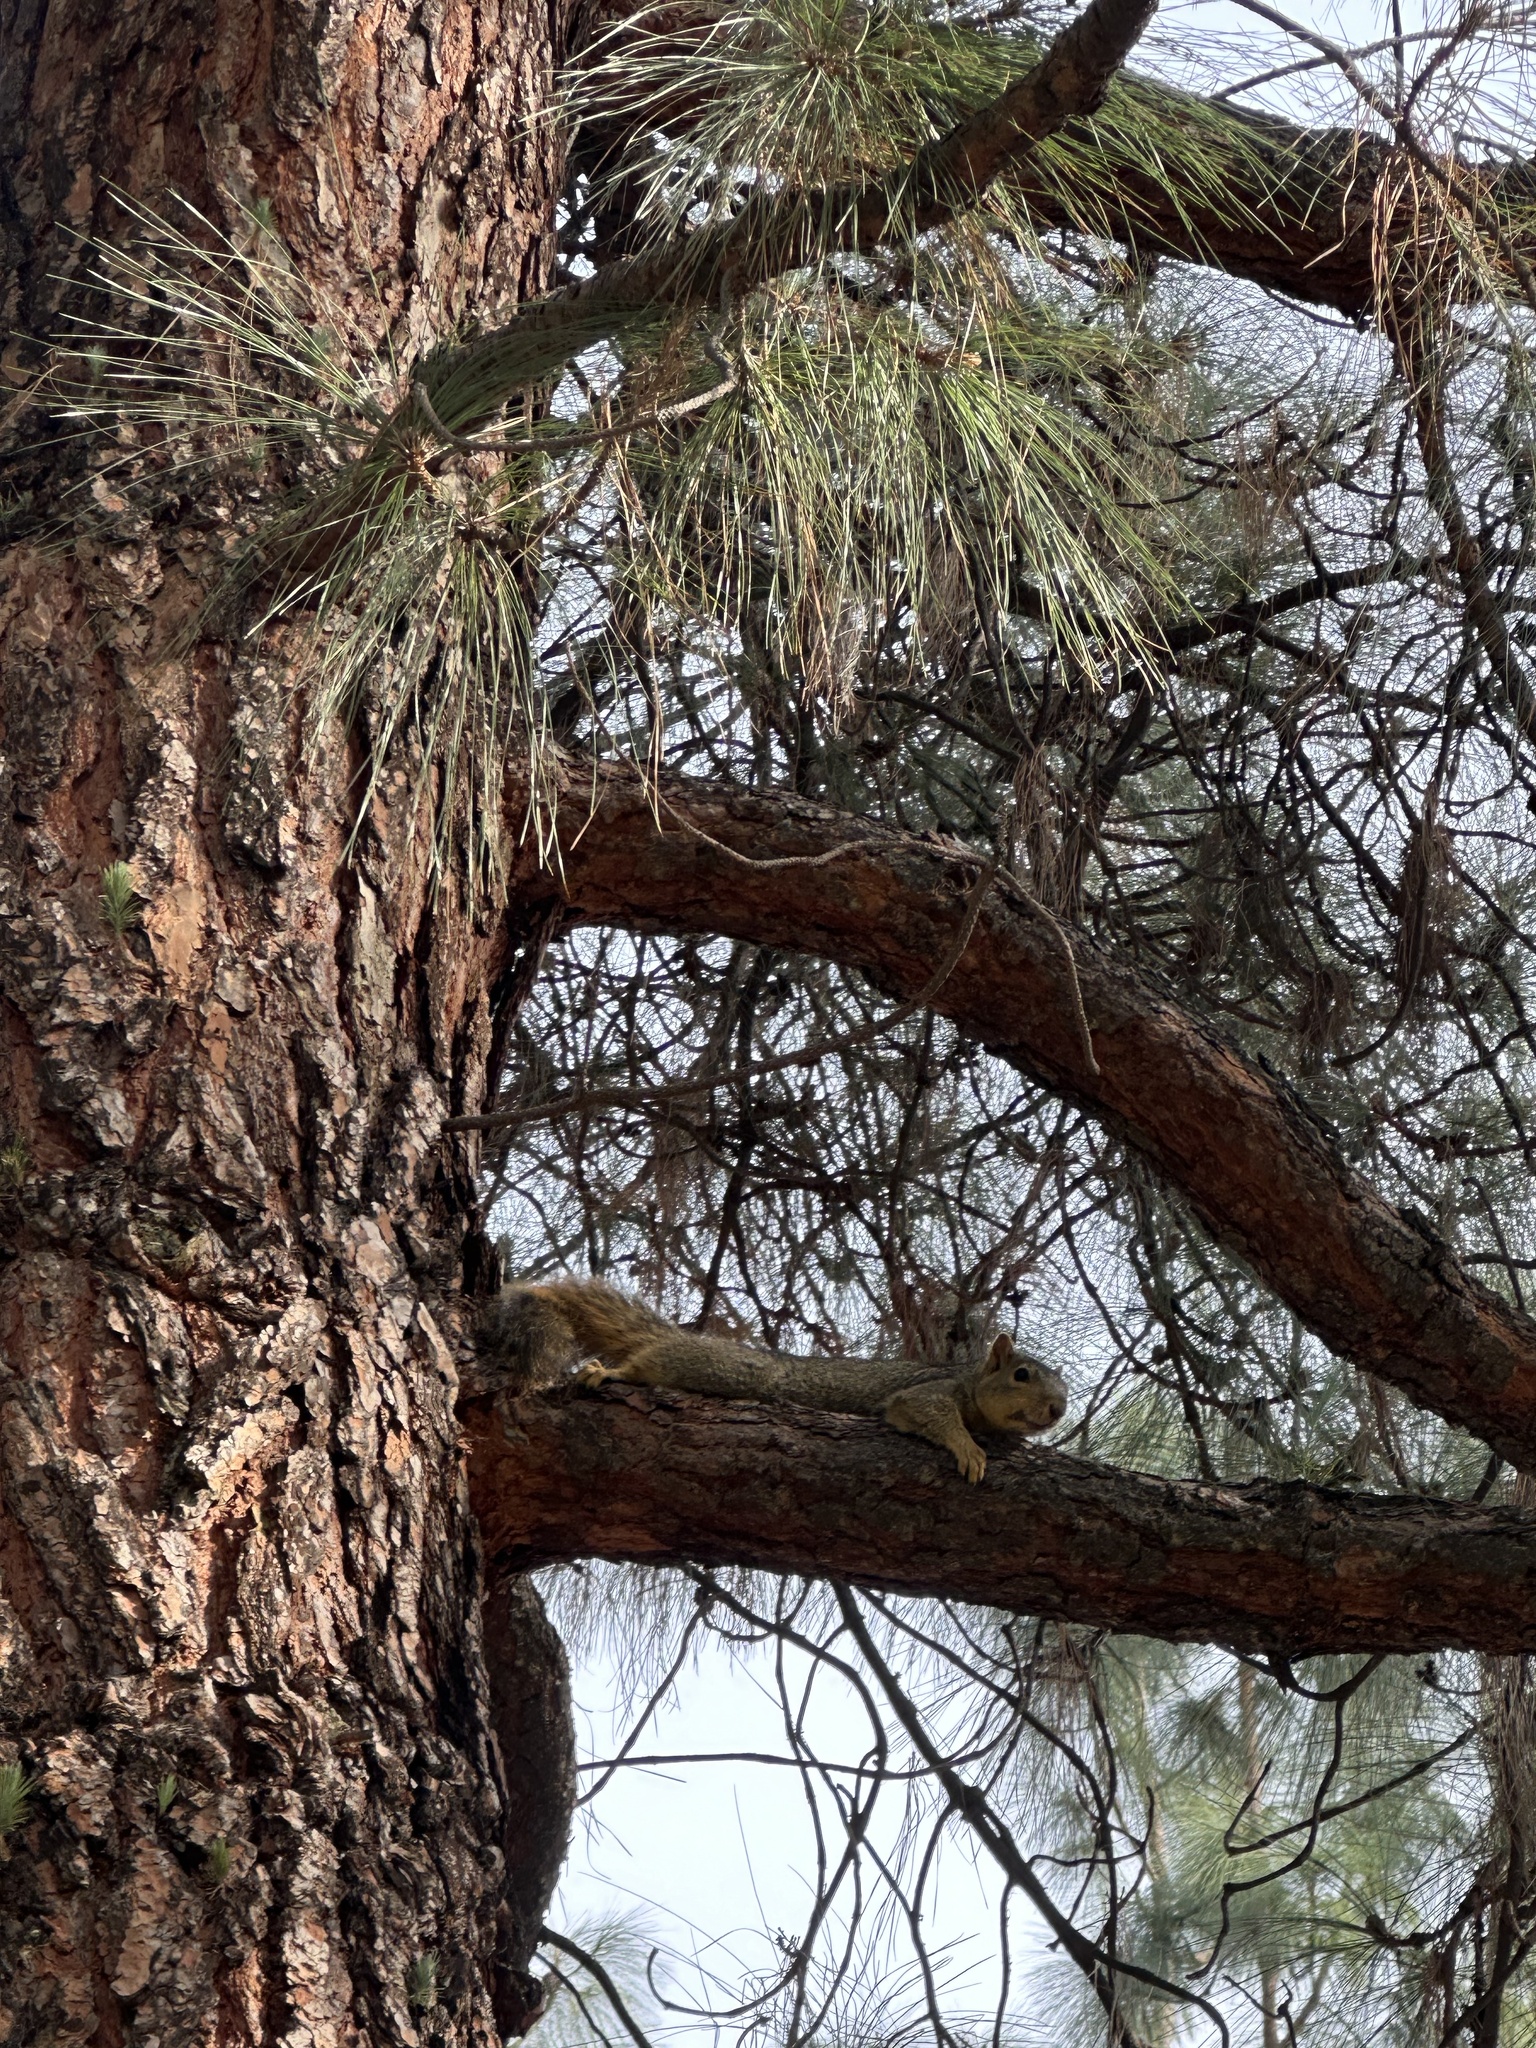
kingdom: Animalia
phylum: Chordata
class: Mammalia
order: Rodentia
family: Sciuridae
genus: Sciurus
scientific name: Sciurus niger
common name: Fox squirrel
